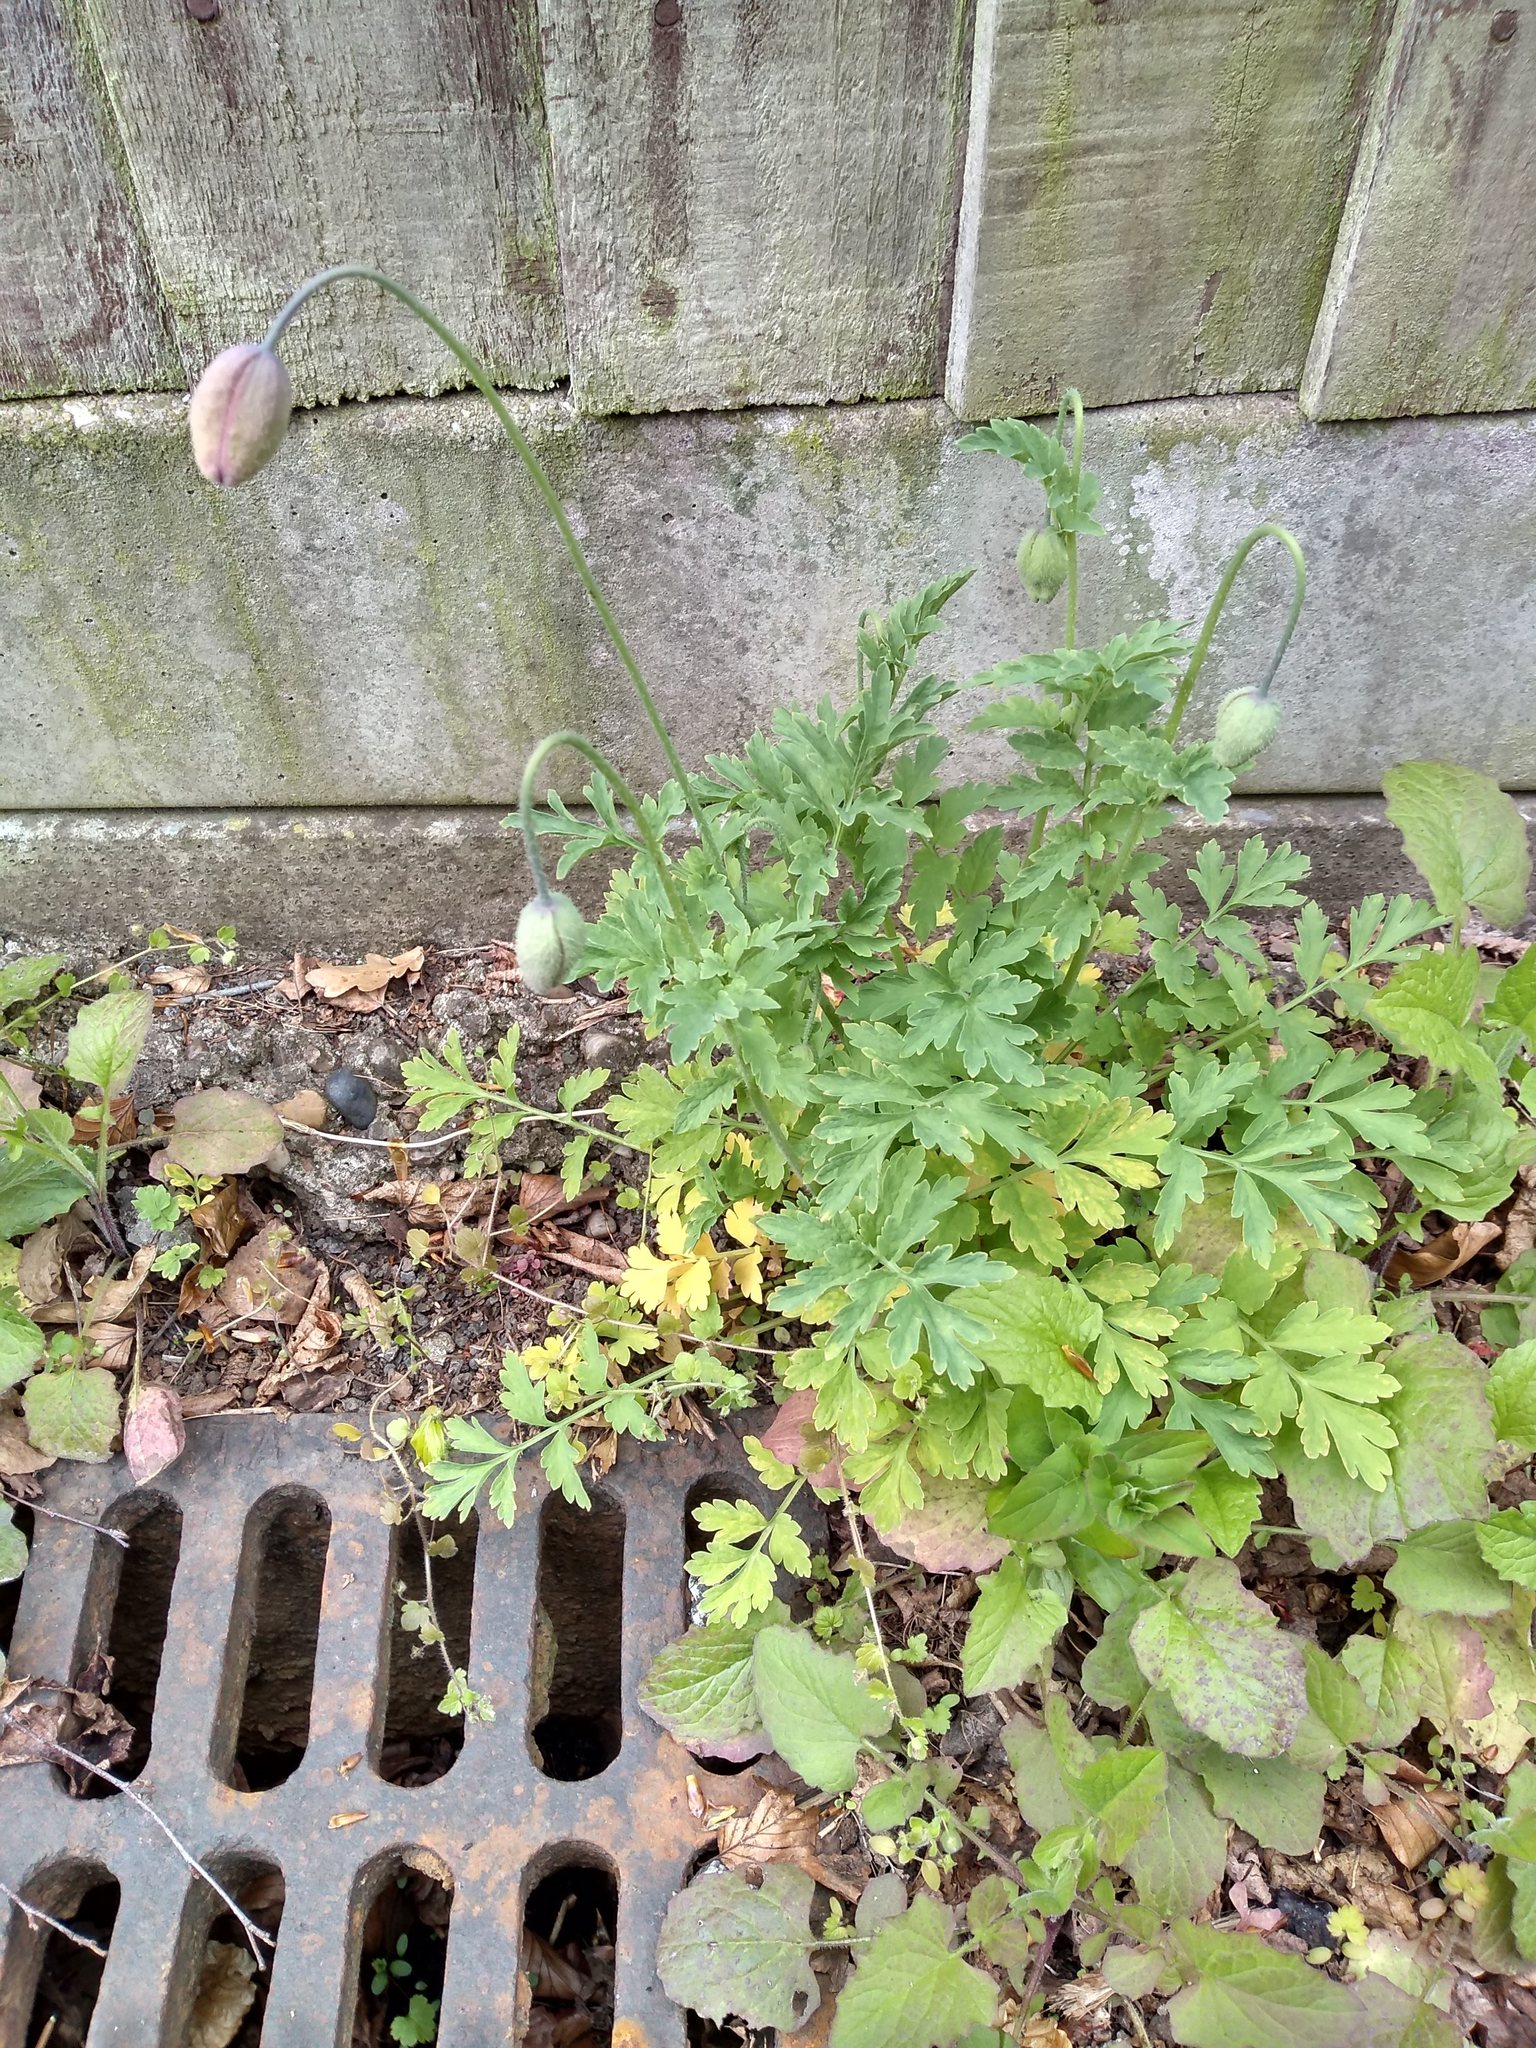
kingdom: Plantae
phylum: Tracheophyta
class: Magnoliopsida
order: Ranunculales
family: Papaveraceae
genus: Papaver
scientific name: Papaver cambricum
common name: Poppy
